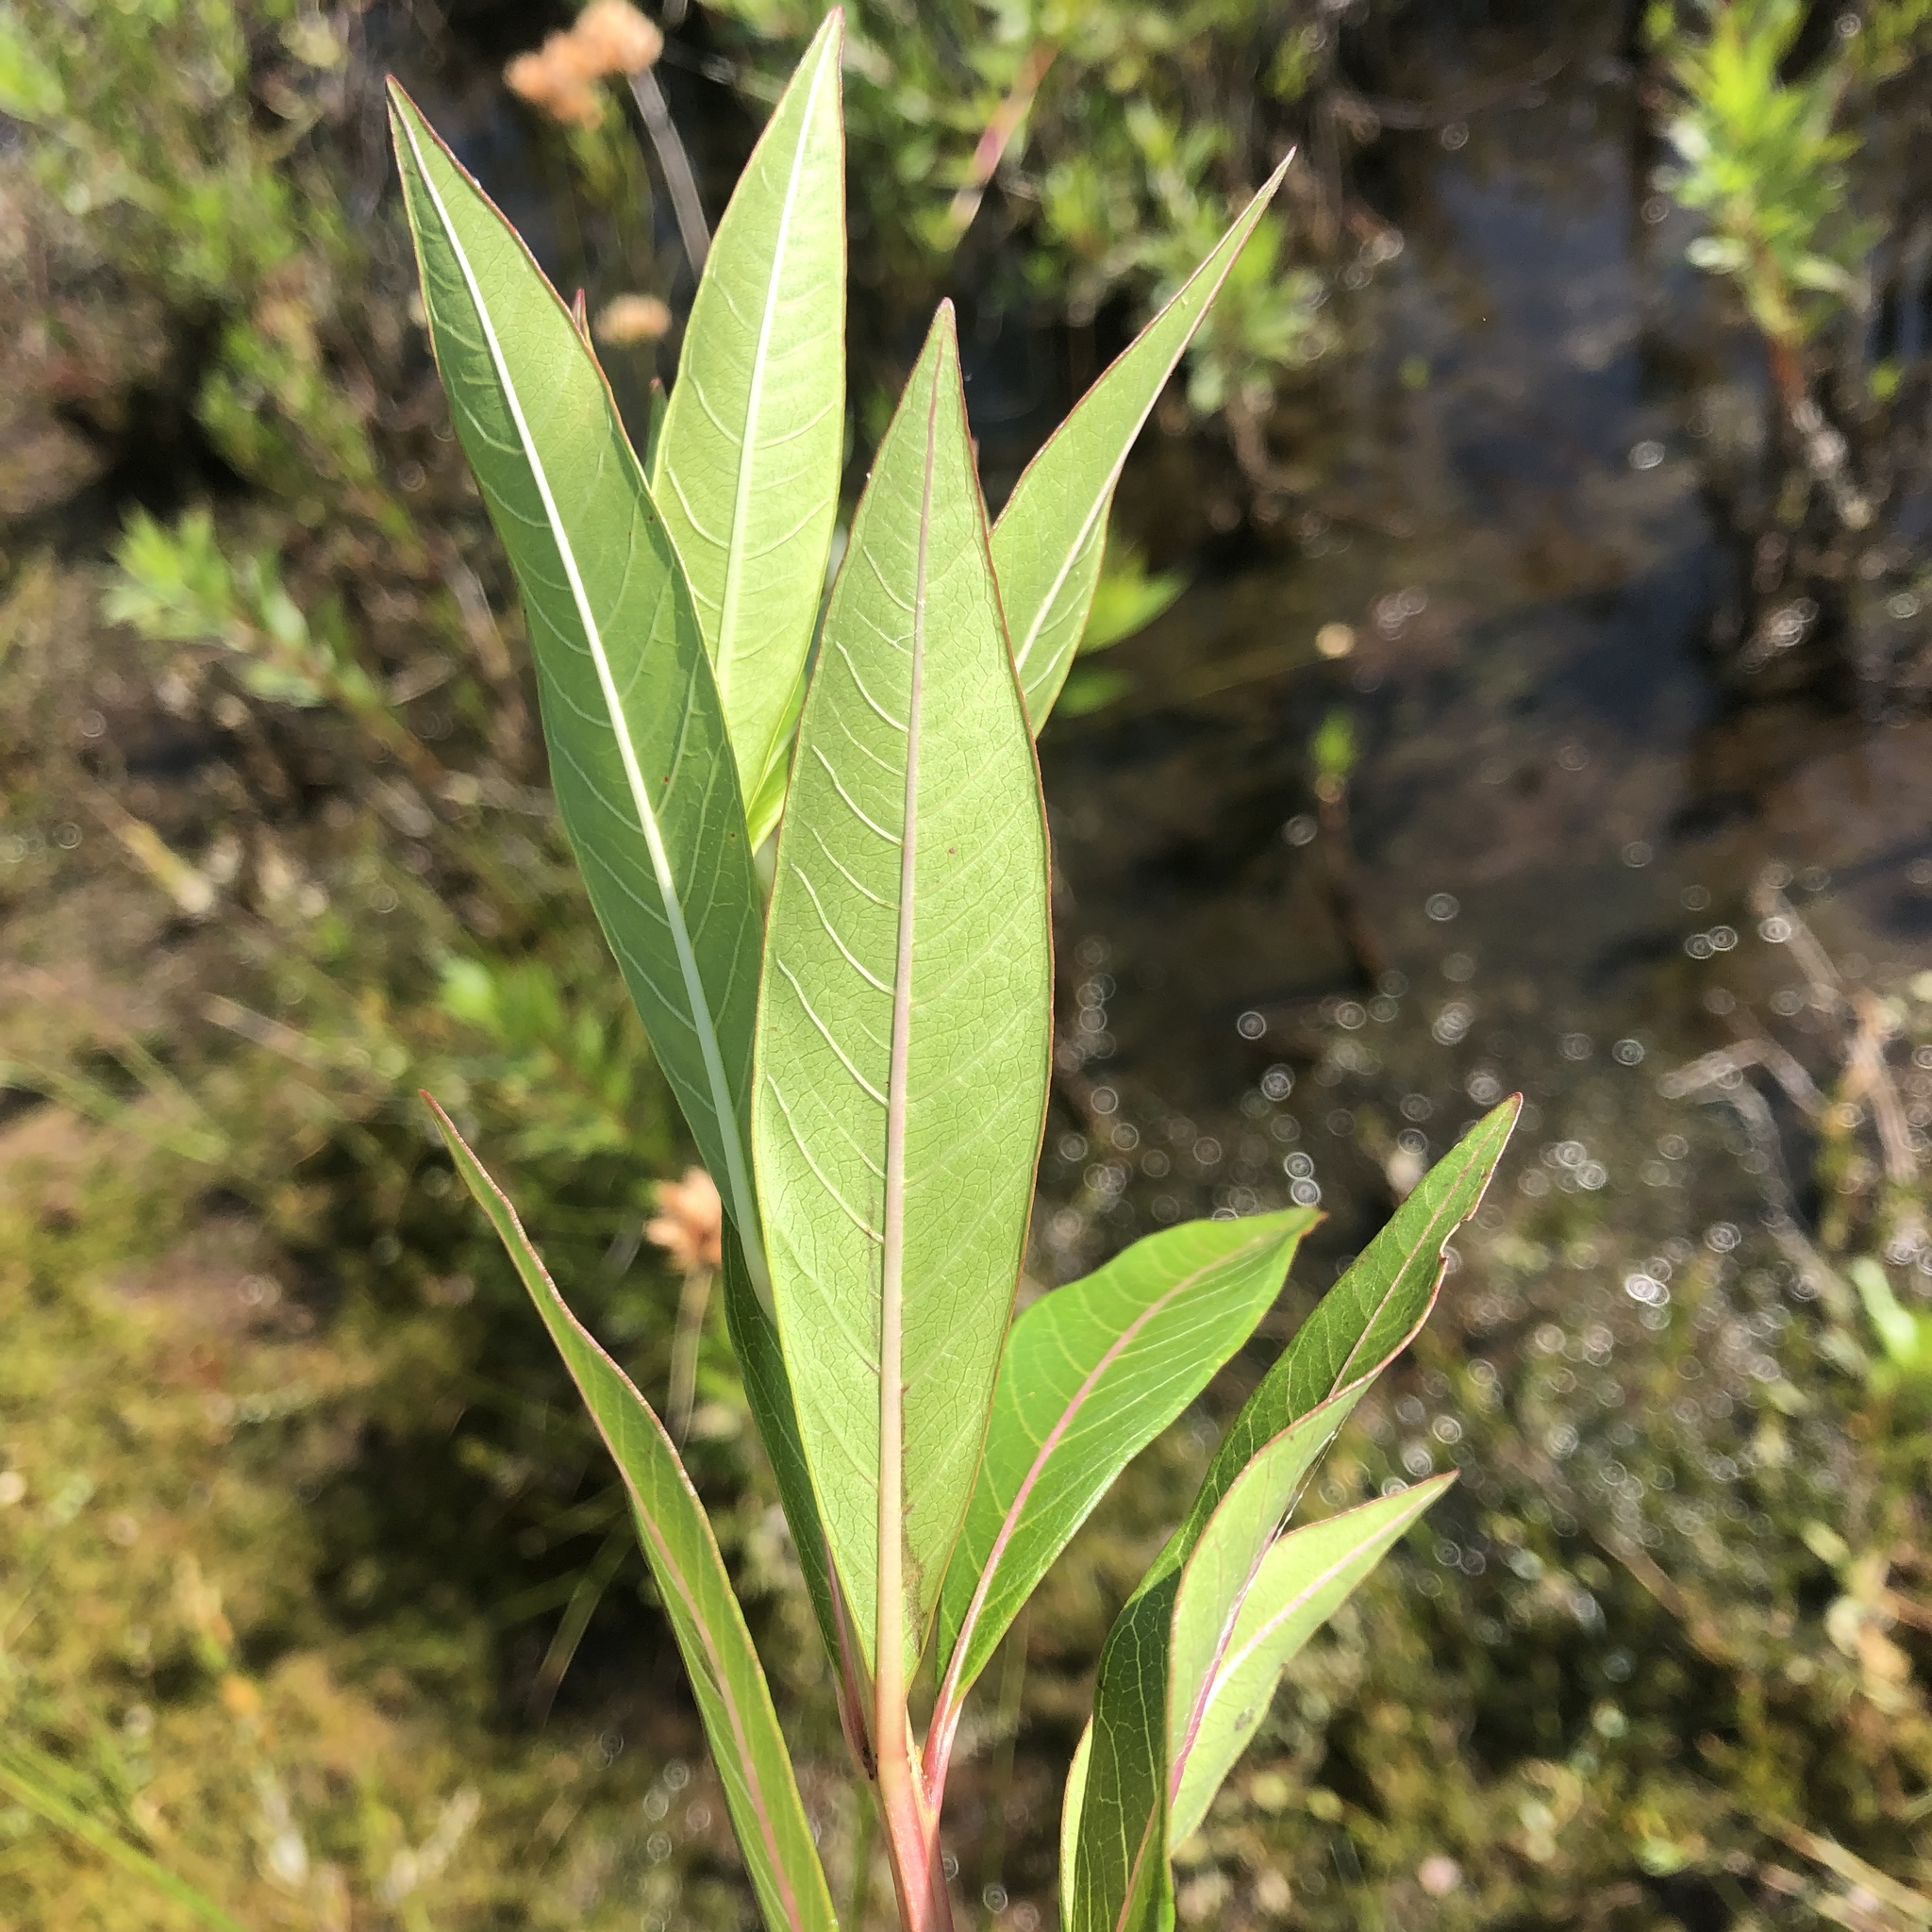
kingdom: Plantae
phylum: Tracheophyta
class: Magnoliopsida
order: Myrtales
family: Lythraceae
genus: Decodon
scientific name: Decodon verticillatus
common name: Hairy swamp loosestrife
